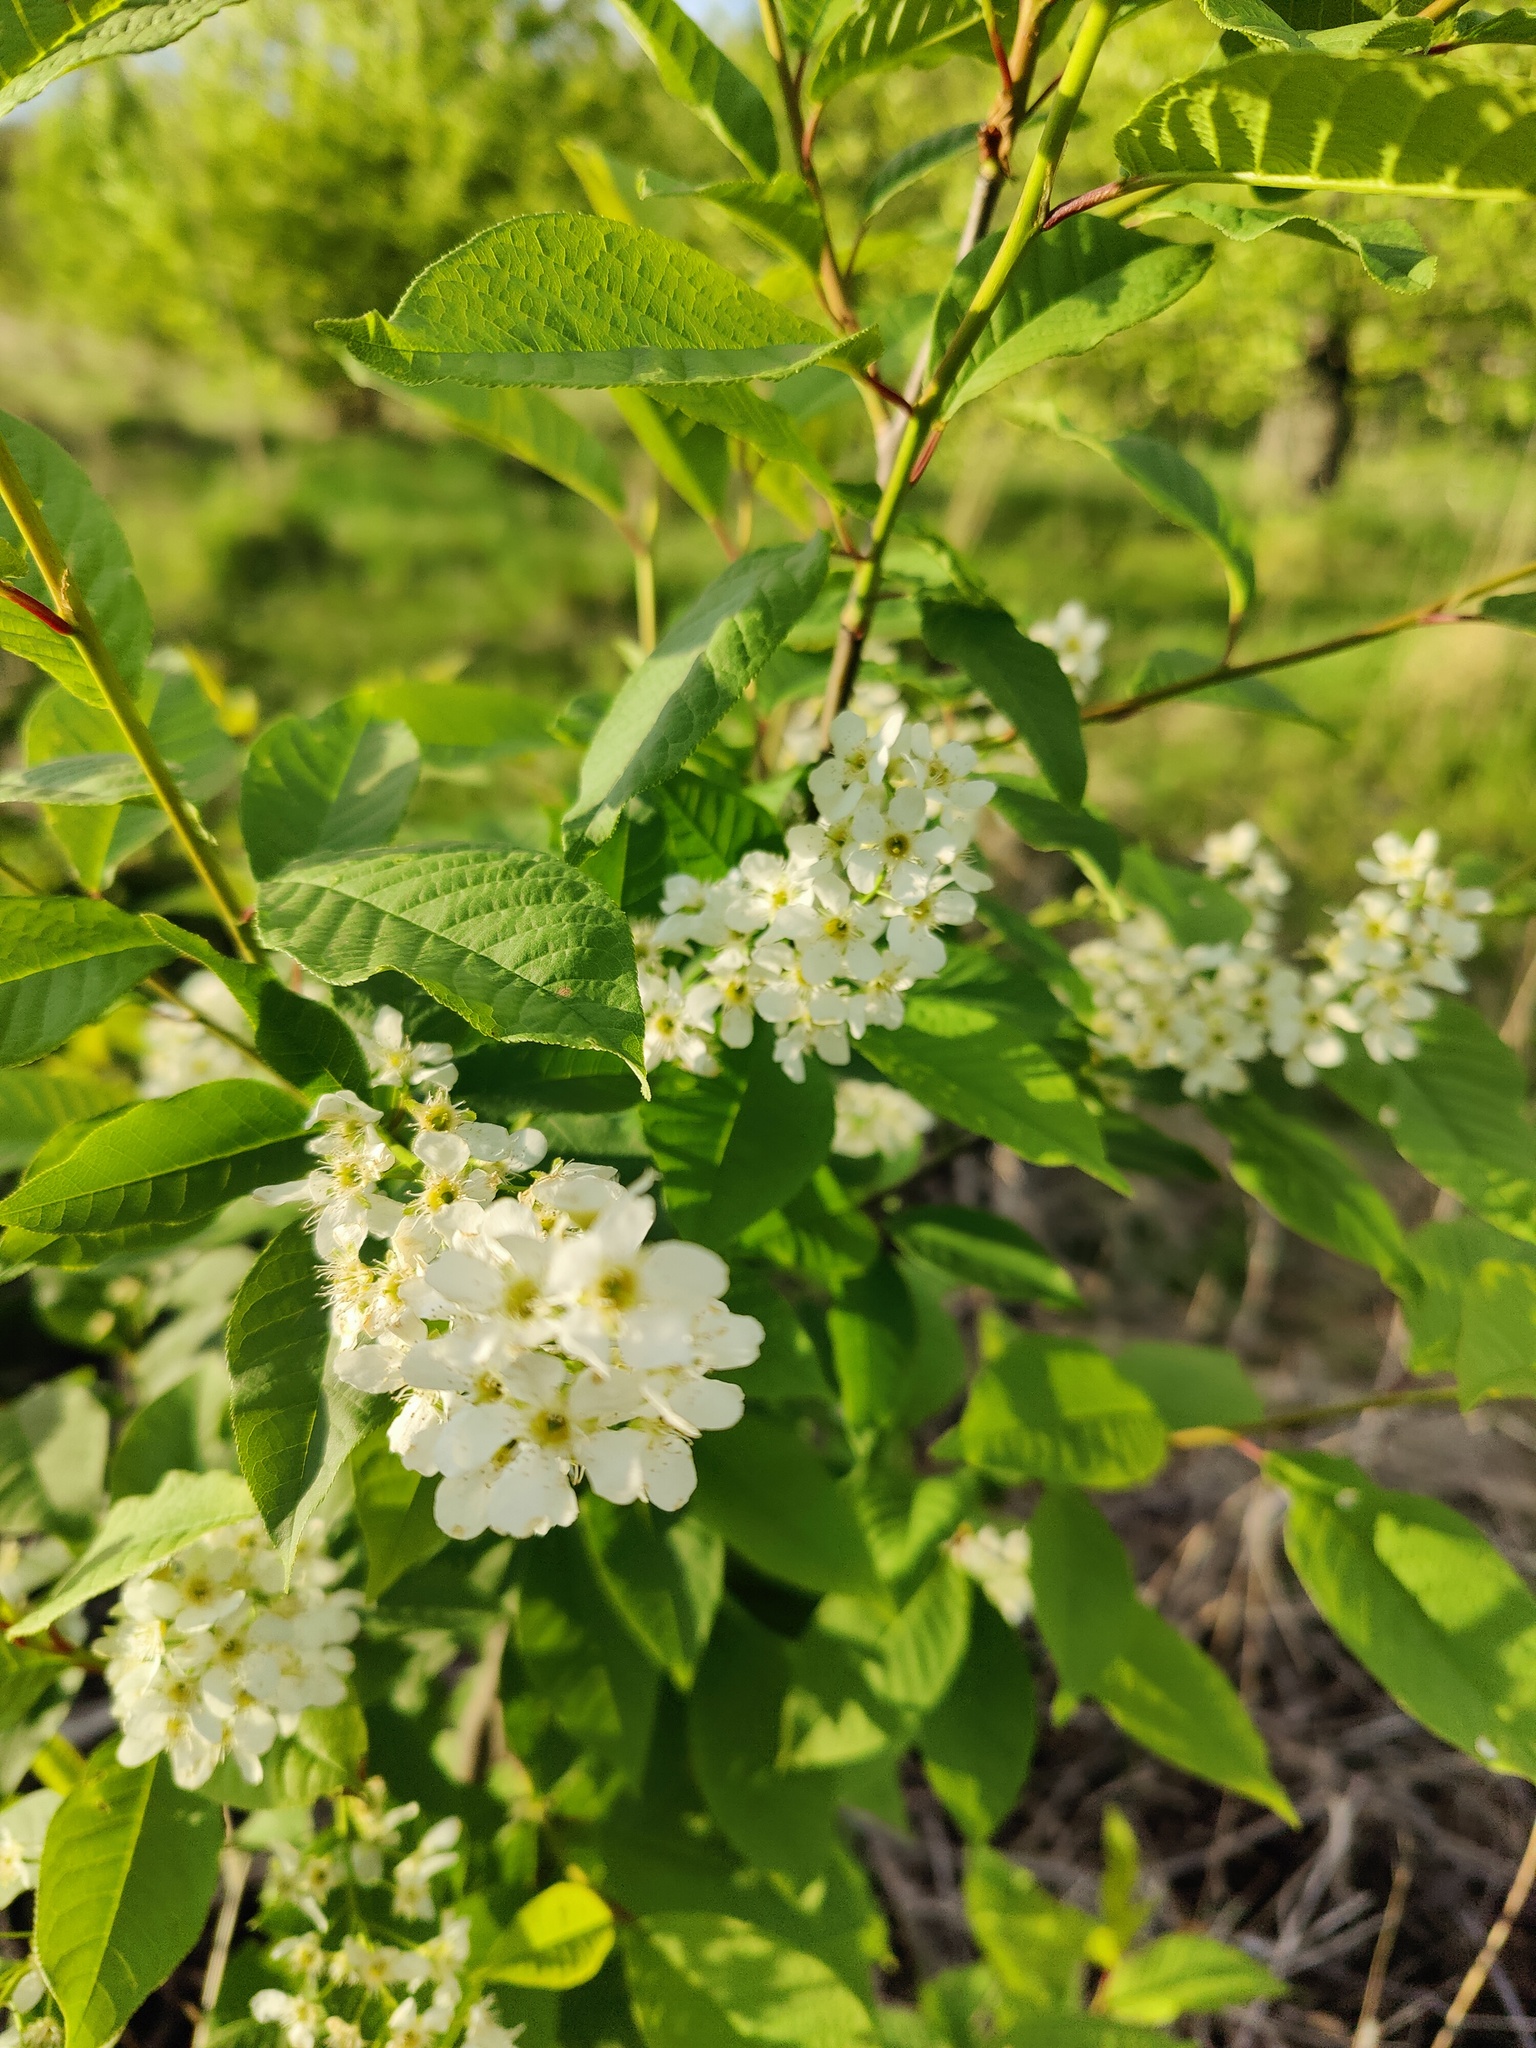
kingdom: Plantae
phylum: Tracheophyta
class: Magnoliopsida
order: Rosales
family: Rosaceae
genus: Prunus
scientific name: Prunus padus
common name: Bird cherry
